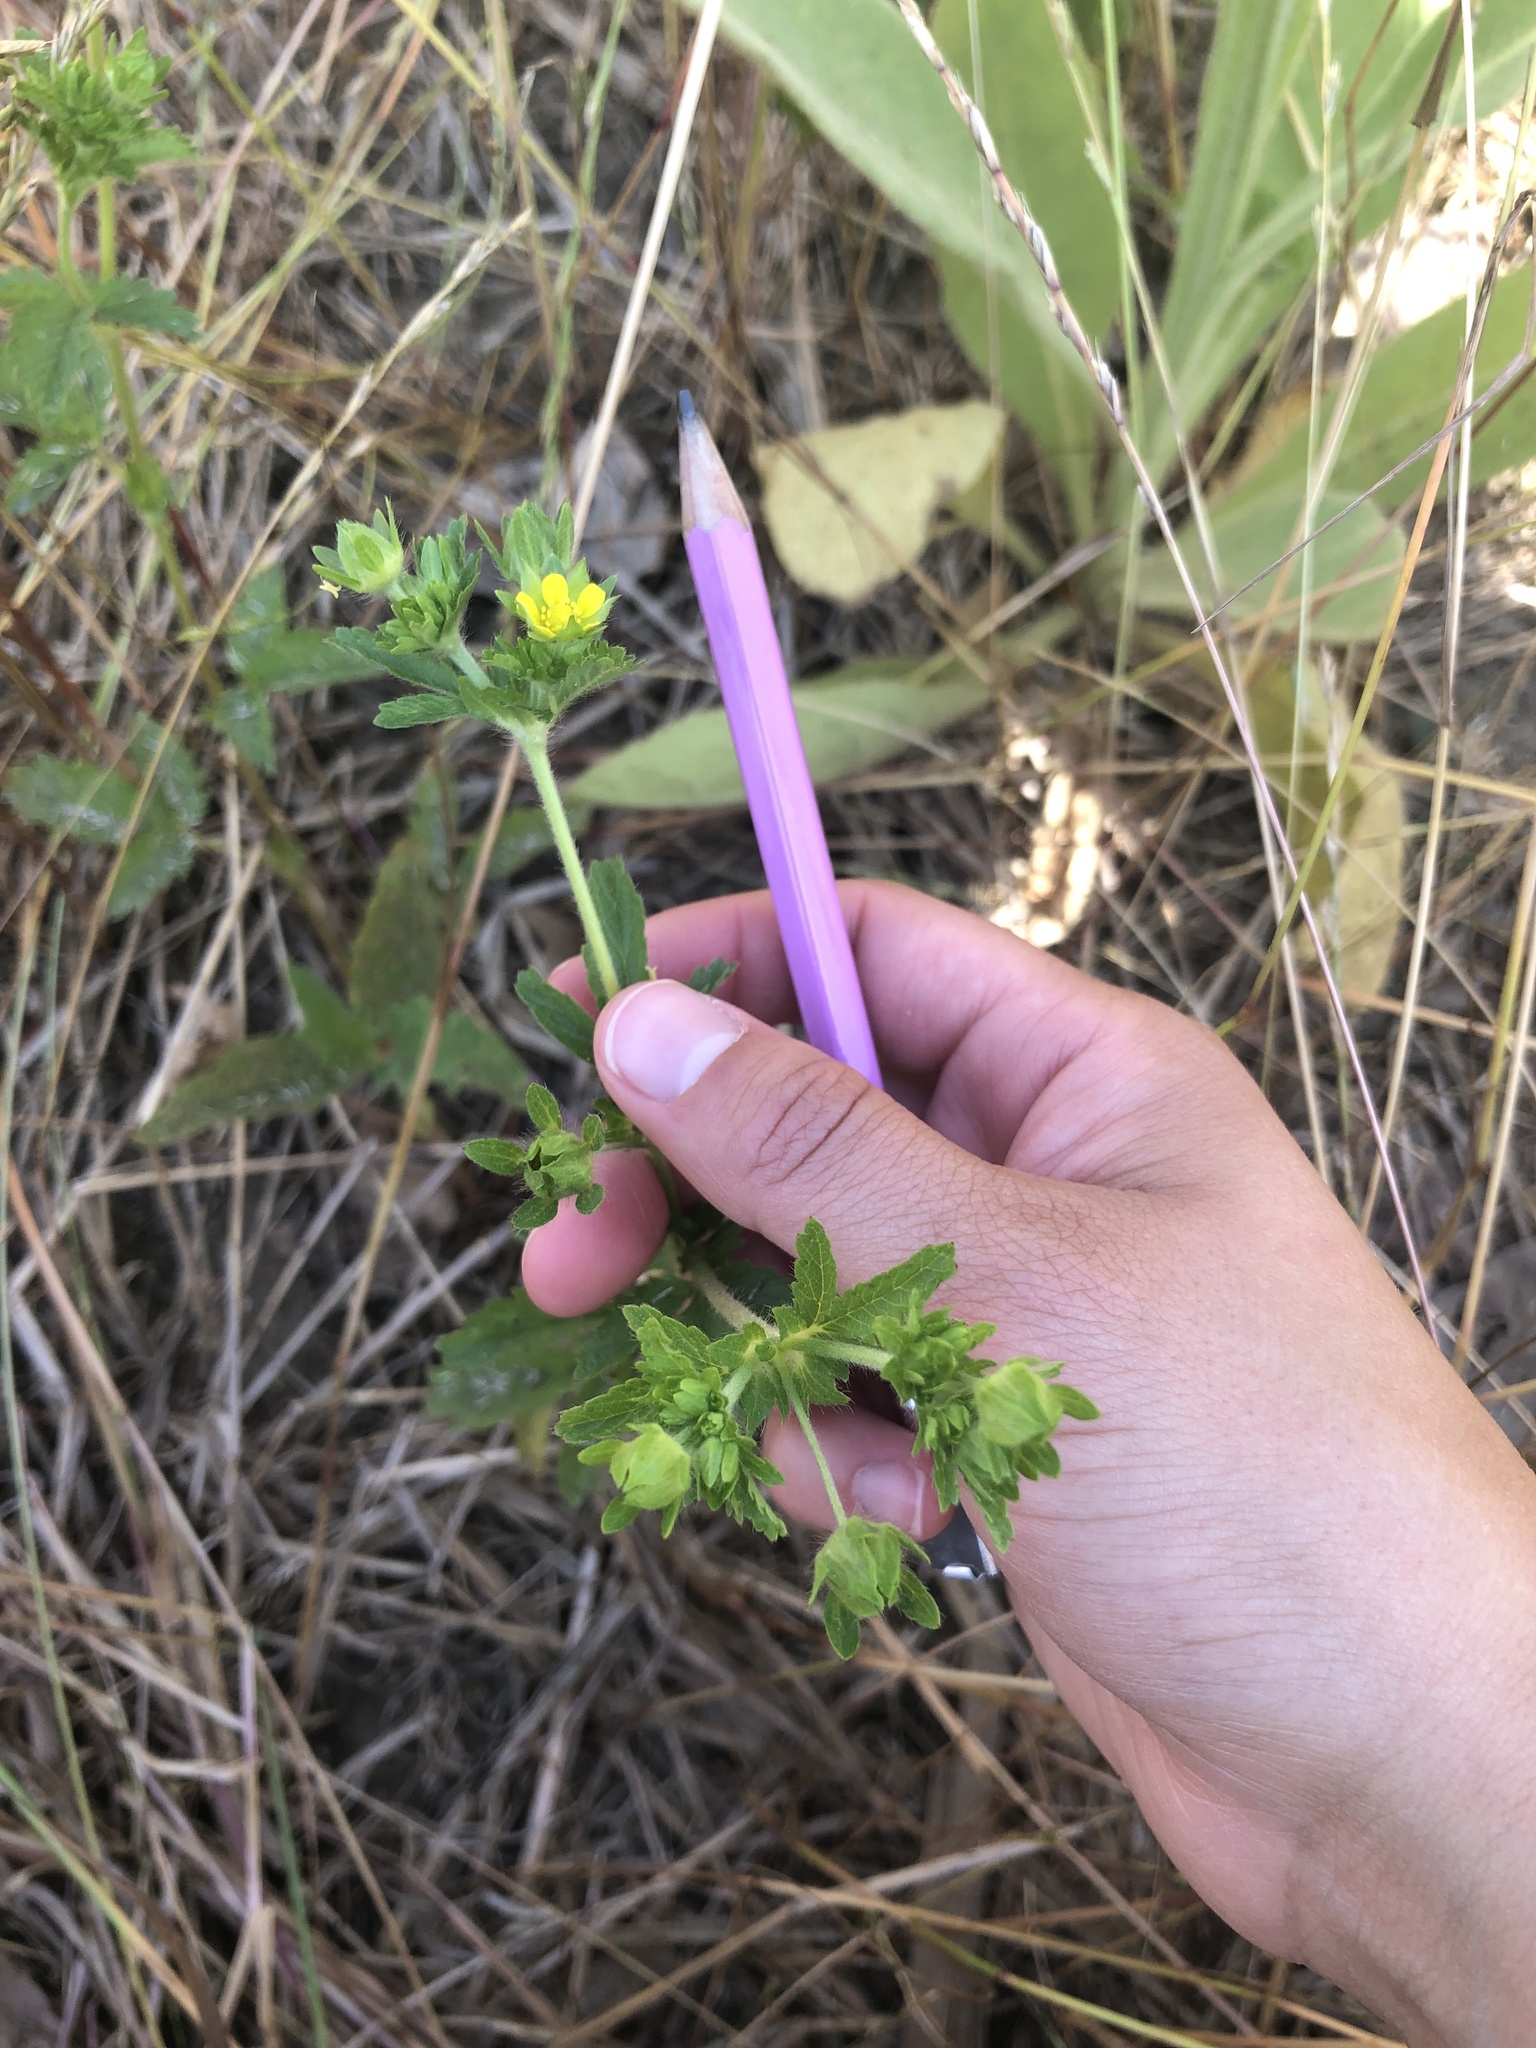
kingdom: Plantae
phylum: Tracheophyta
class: Magnoliopsida
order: Rosales
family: Rosaceae
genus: Potentilla
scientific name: Potentilla norvegica
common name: Ternate-leaved cinquefoil
